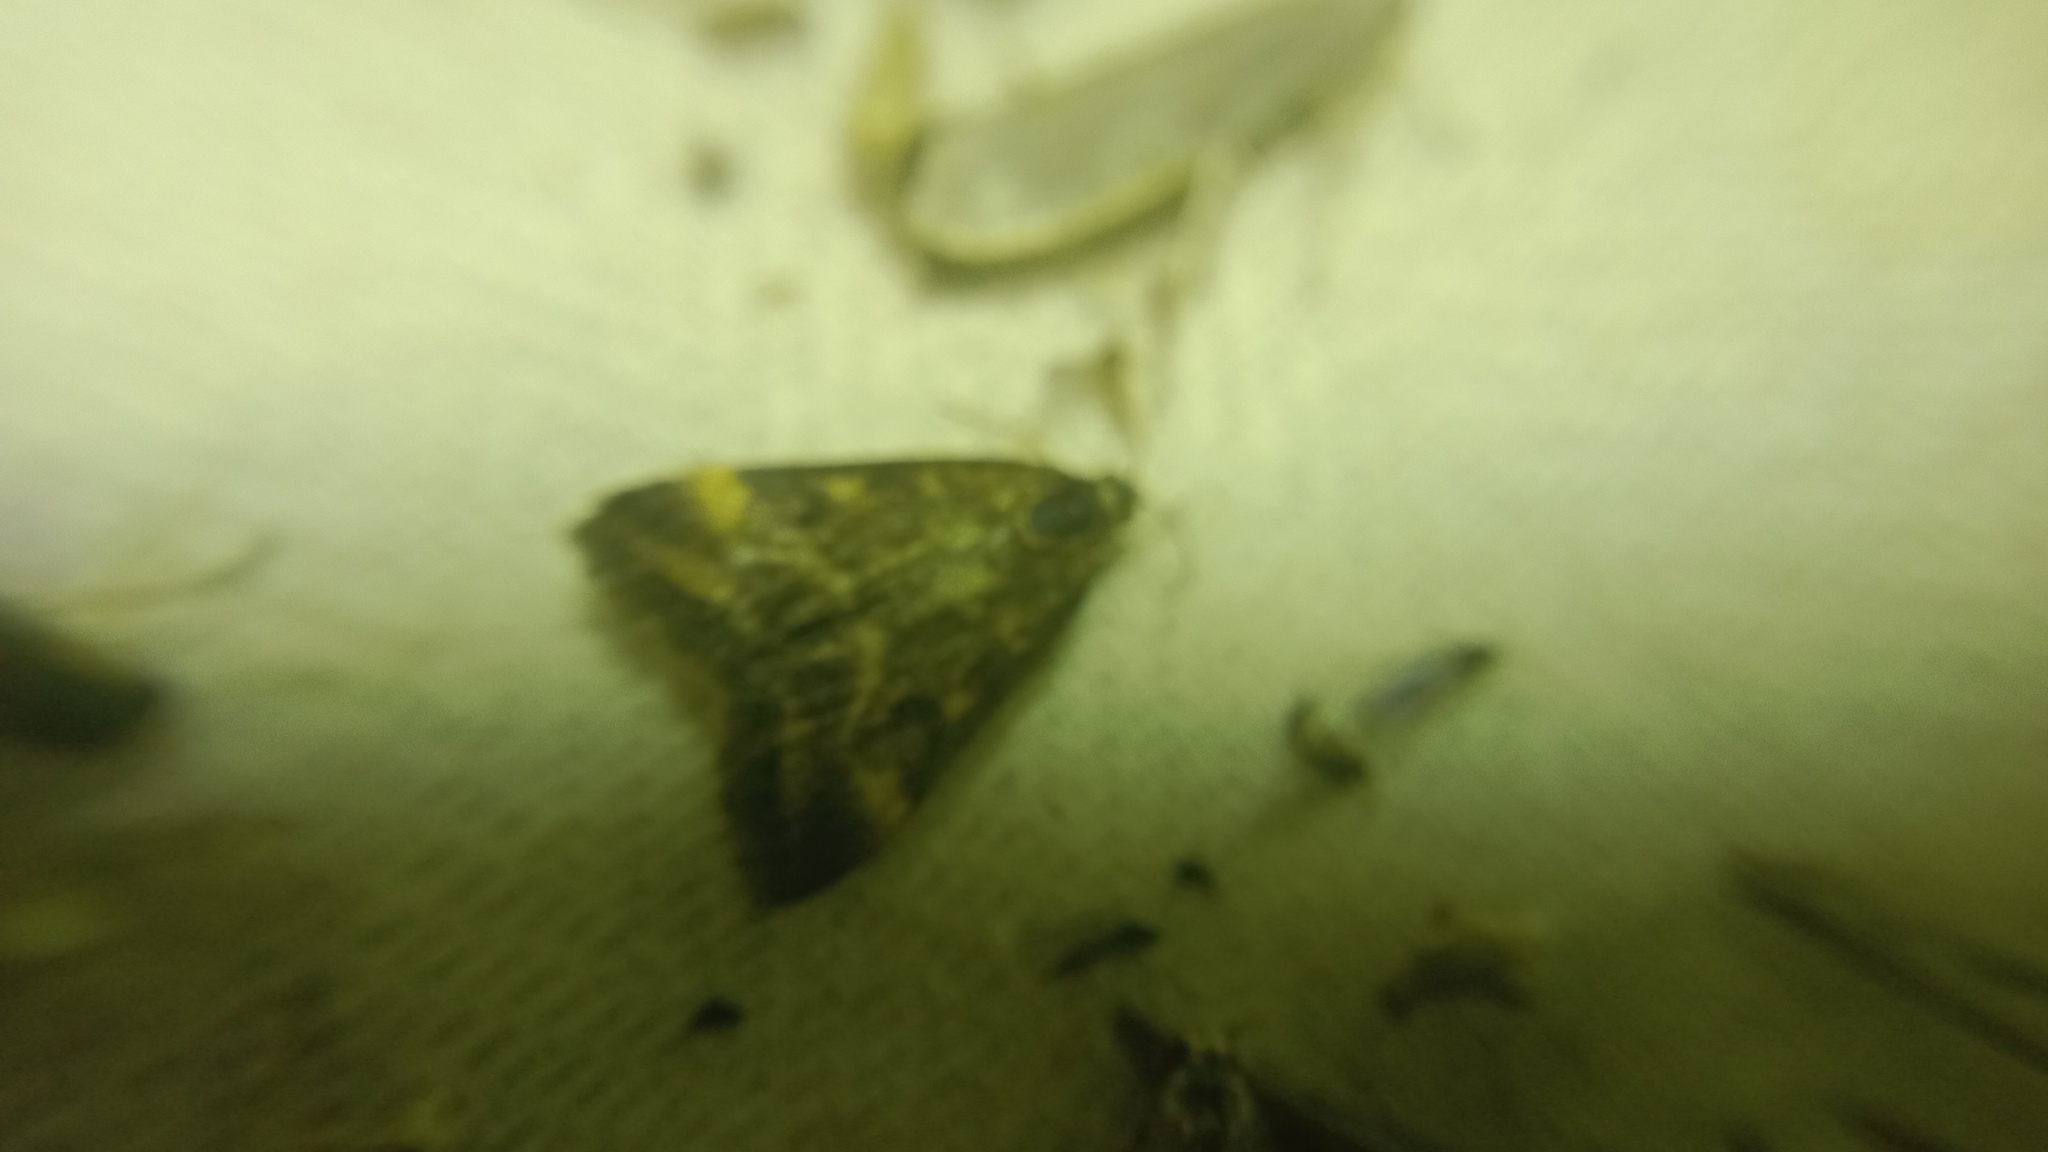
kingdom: Animalia
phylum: Arthropoda
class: Insecta
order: Lepidoptera
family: Crambidae
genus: Pyrausta
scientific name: Pyrausta despicata
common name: Straw-barred pearl
